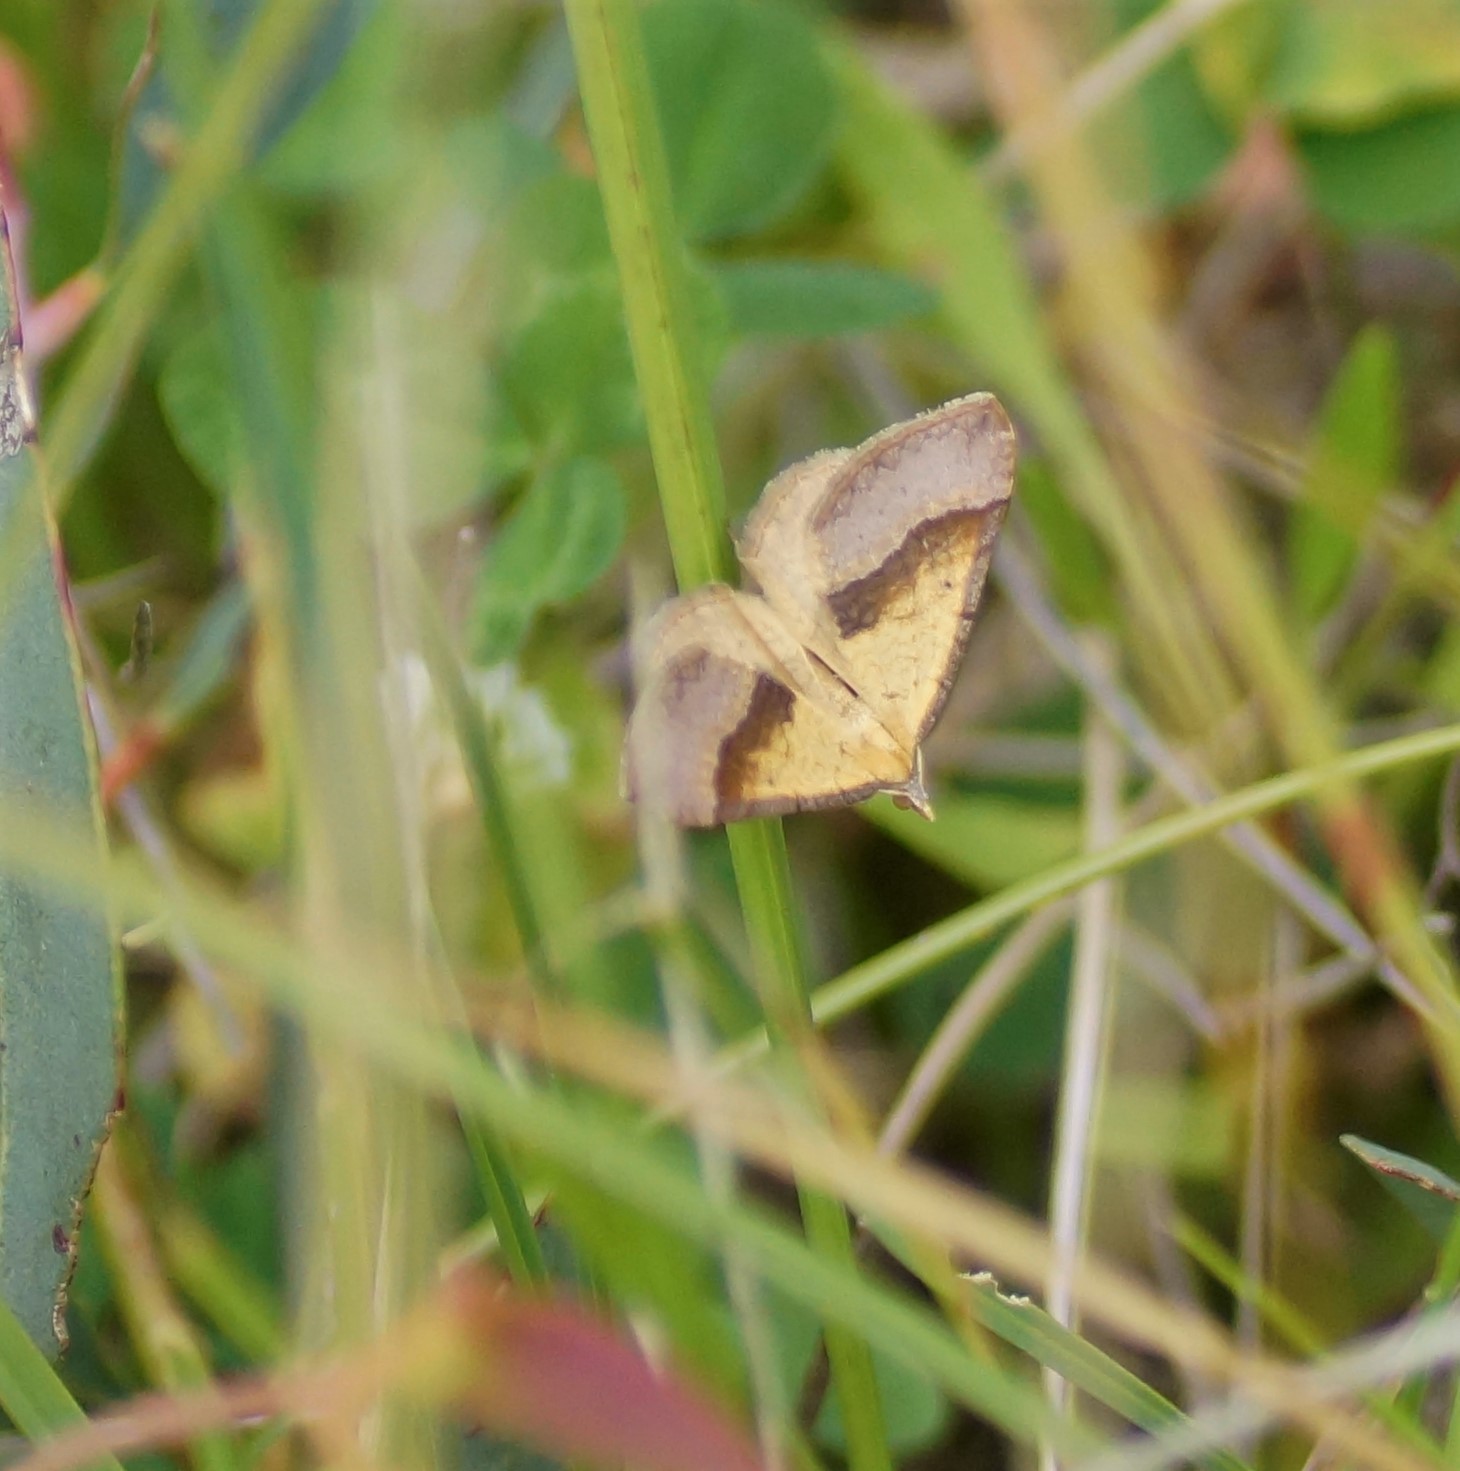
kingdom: Animalia
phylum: Arthropoda
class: Insecta
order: Lepidoptera
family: Geometridae
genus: Anachloris
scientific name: Anachloris subochraria
